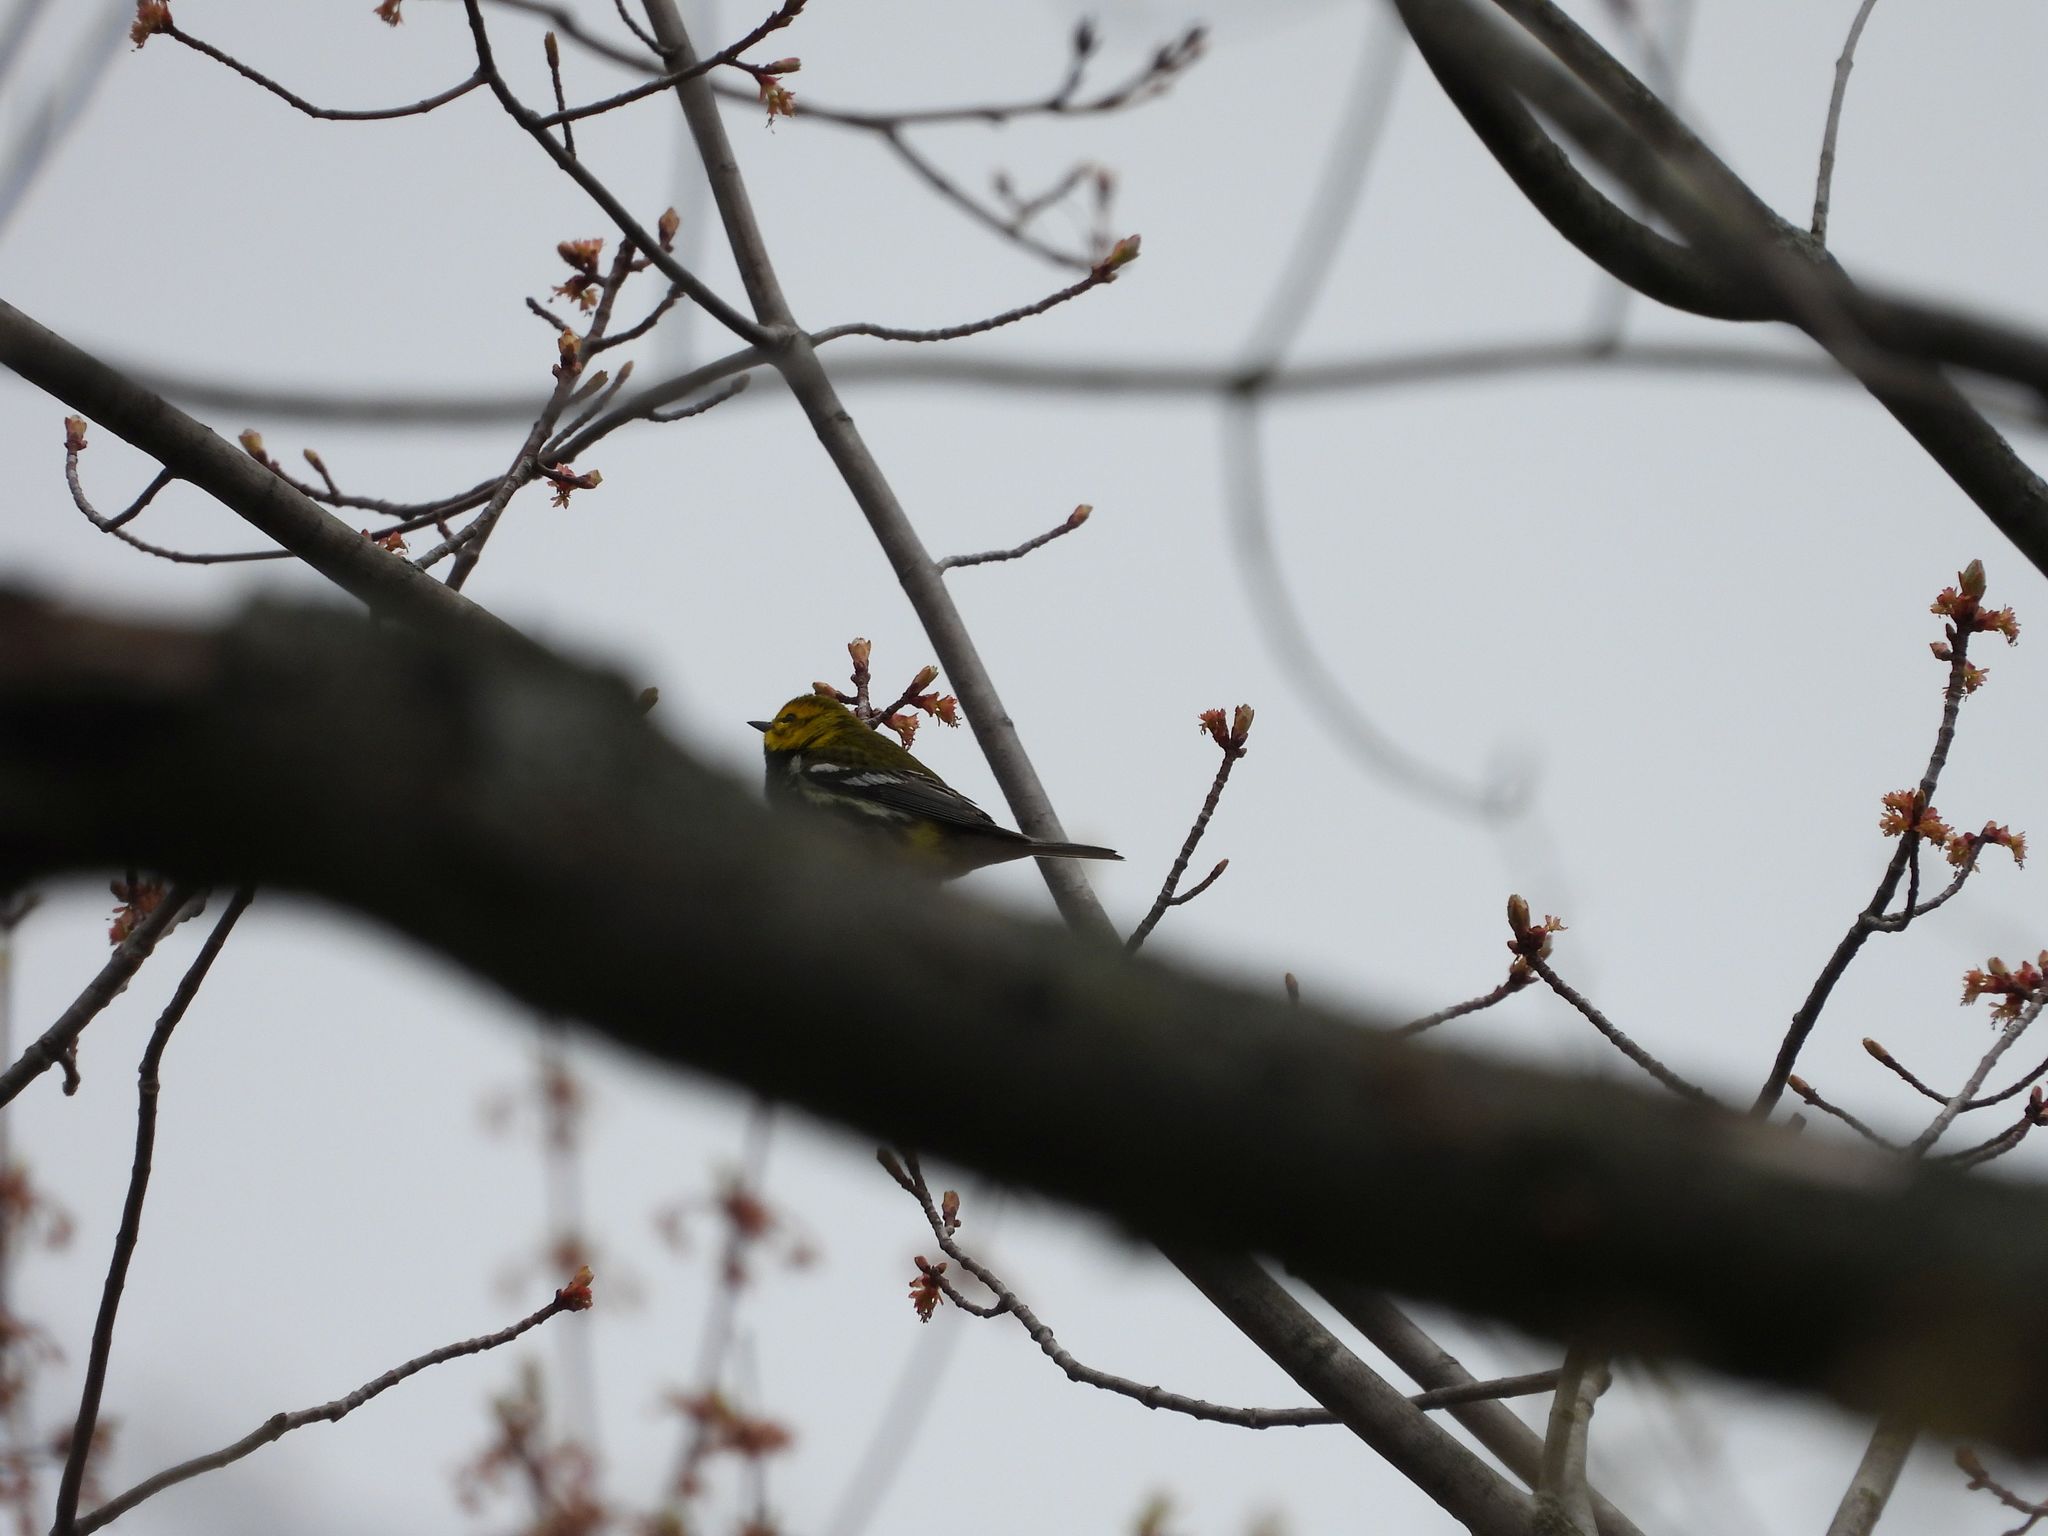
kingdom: Animalia
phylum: Chordata
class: Aves
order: Passeriformes
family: Parulidae
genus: Setophaga
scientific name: Setophaga virens
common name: Black-throated green warbler
